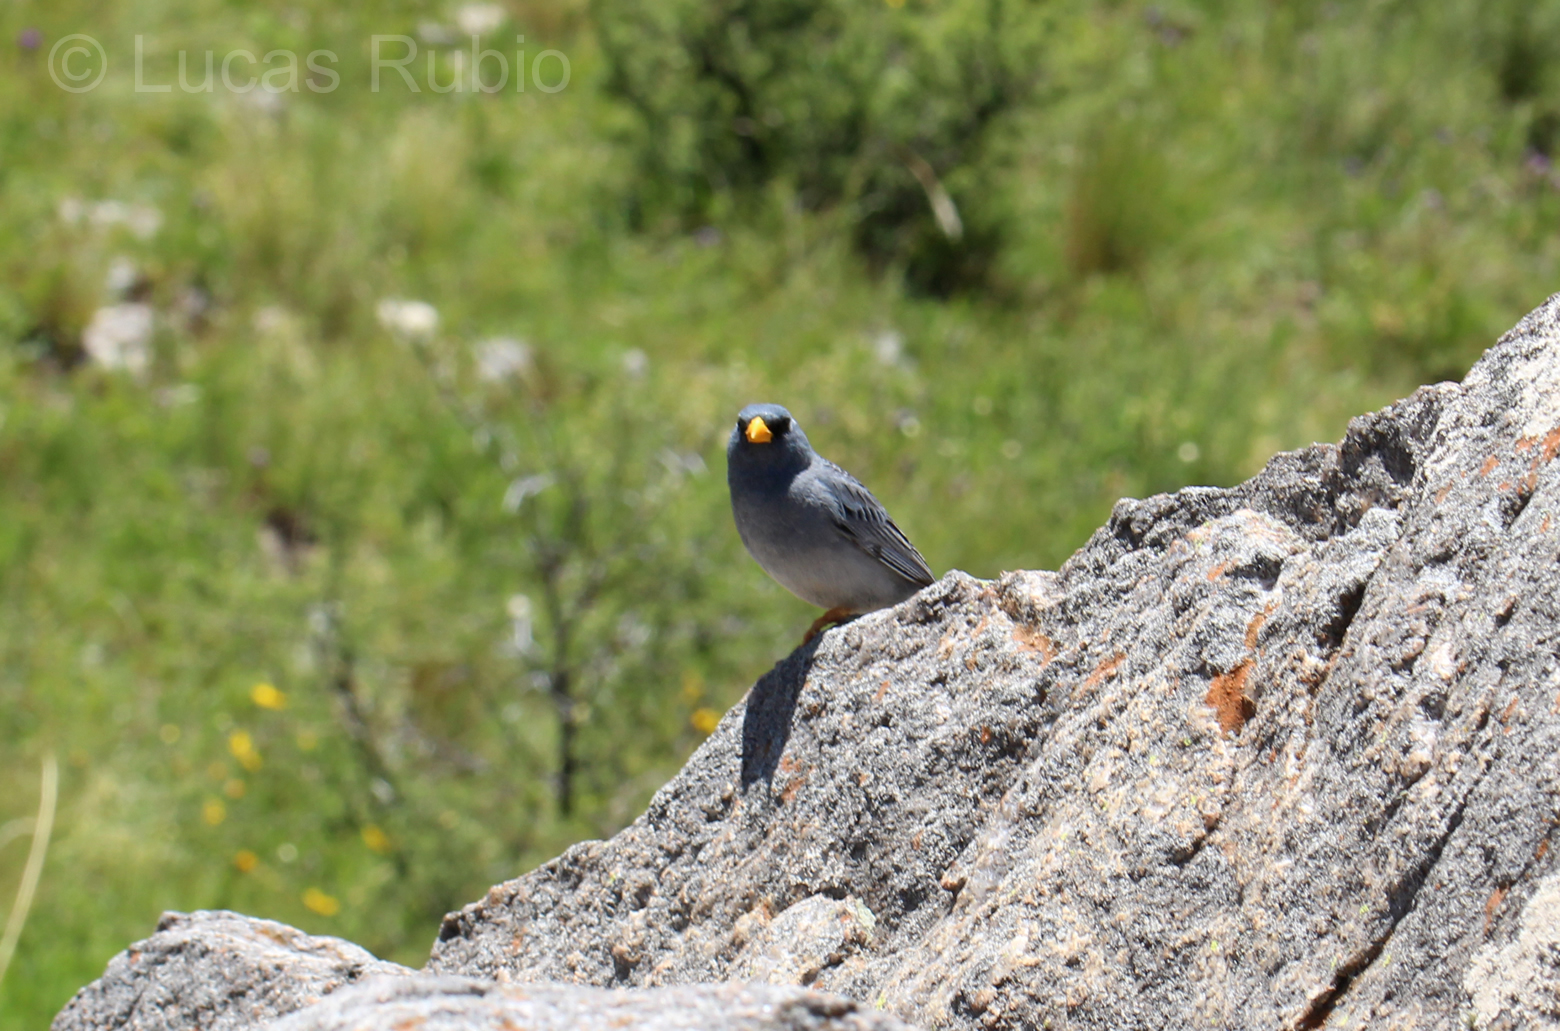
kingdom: Animalia
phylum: Chordata
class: Aves
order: Passeriformes
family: Thraupidae
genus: Porphyrospiza
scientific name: Porphyrospiza alaudina
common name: Band-tailed sierra finch
